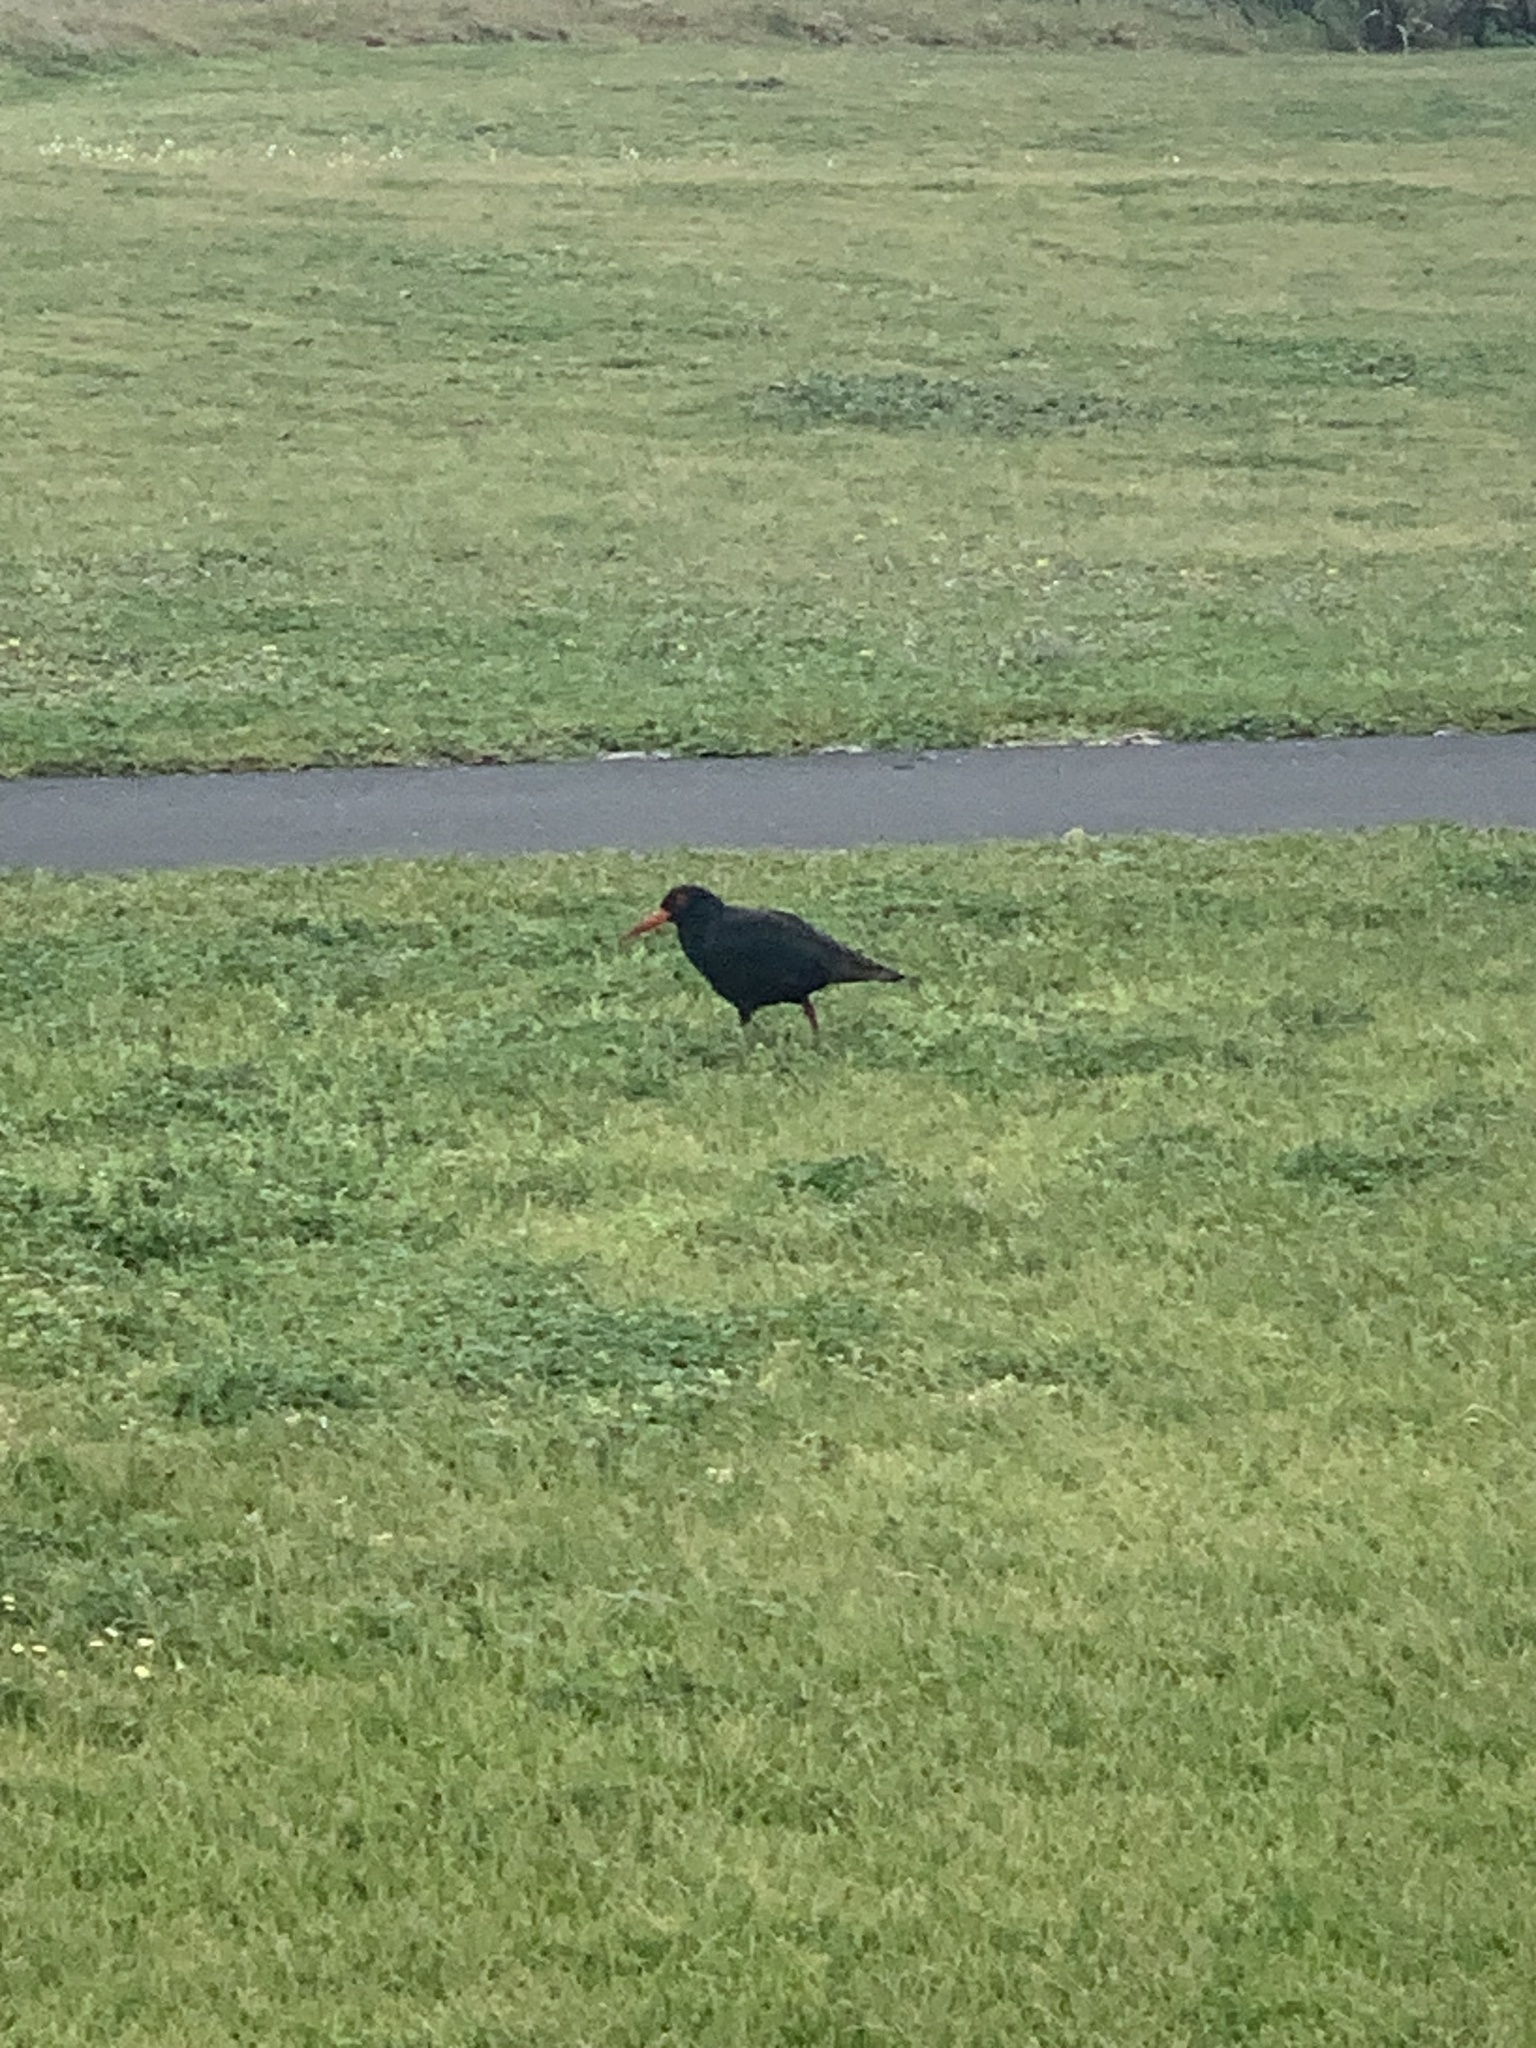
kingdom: Animalia
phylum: Chordata
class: Aves
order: Charadriiformes
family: Haematopodidae
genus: Haematopus
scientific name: Haematopus fuliginosus
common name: Sooty oystercatcher
